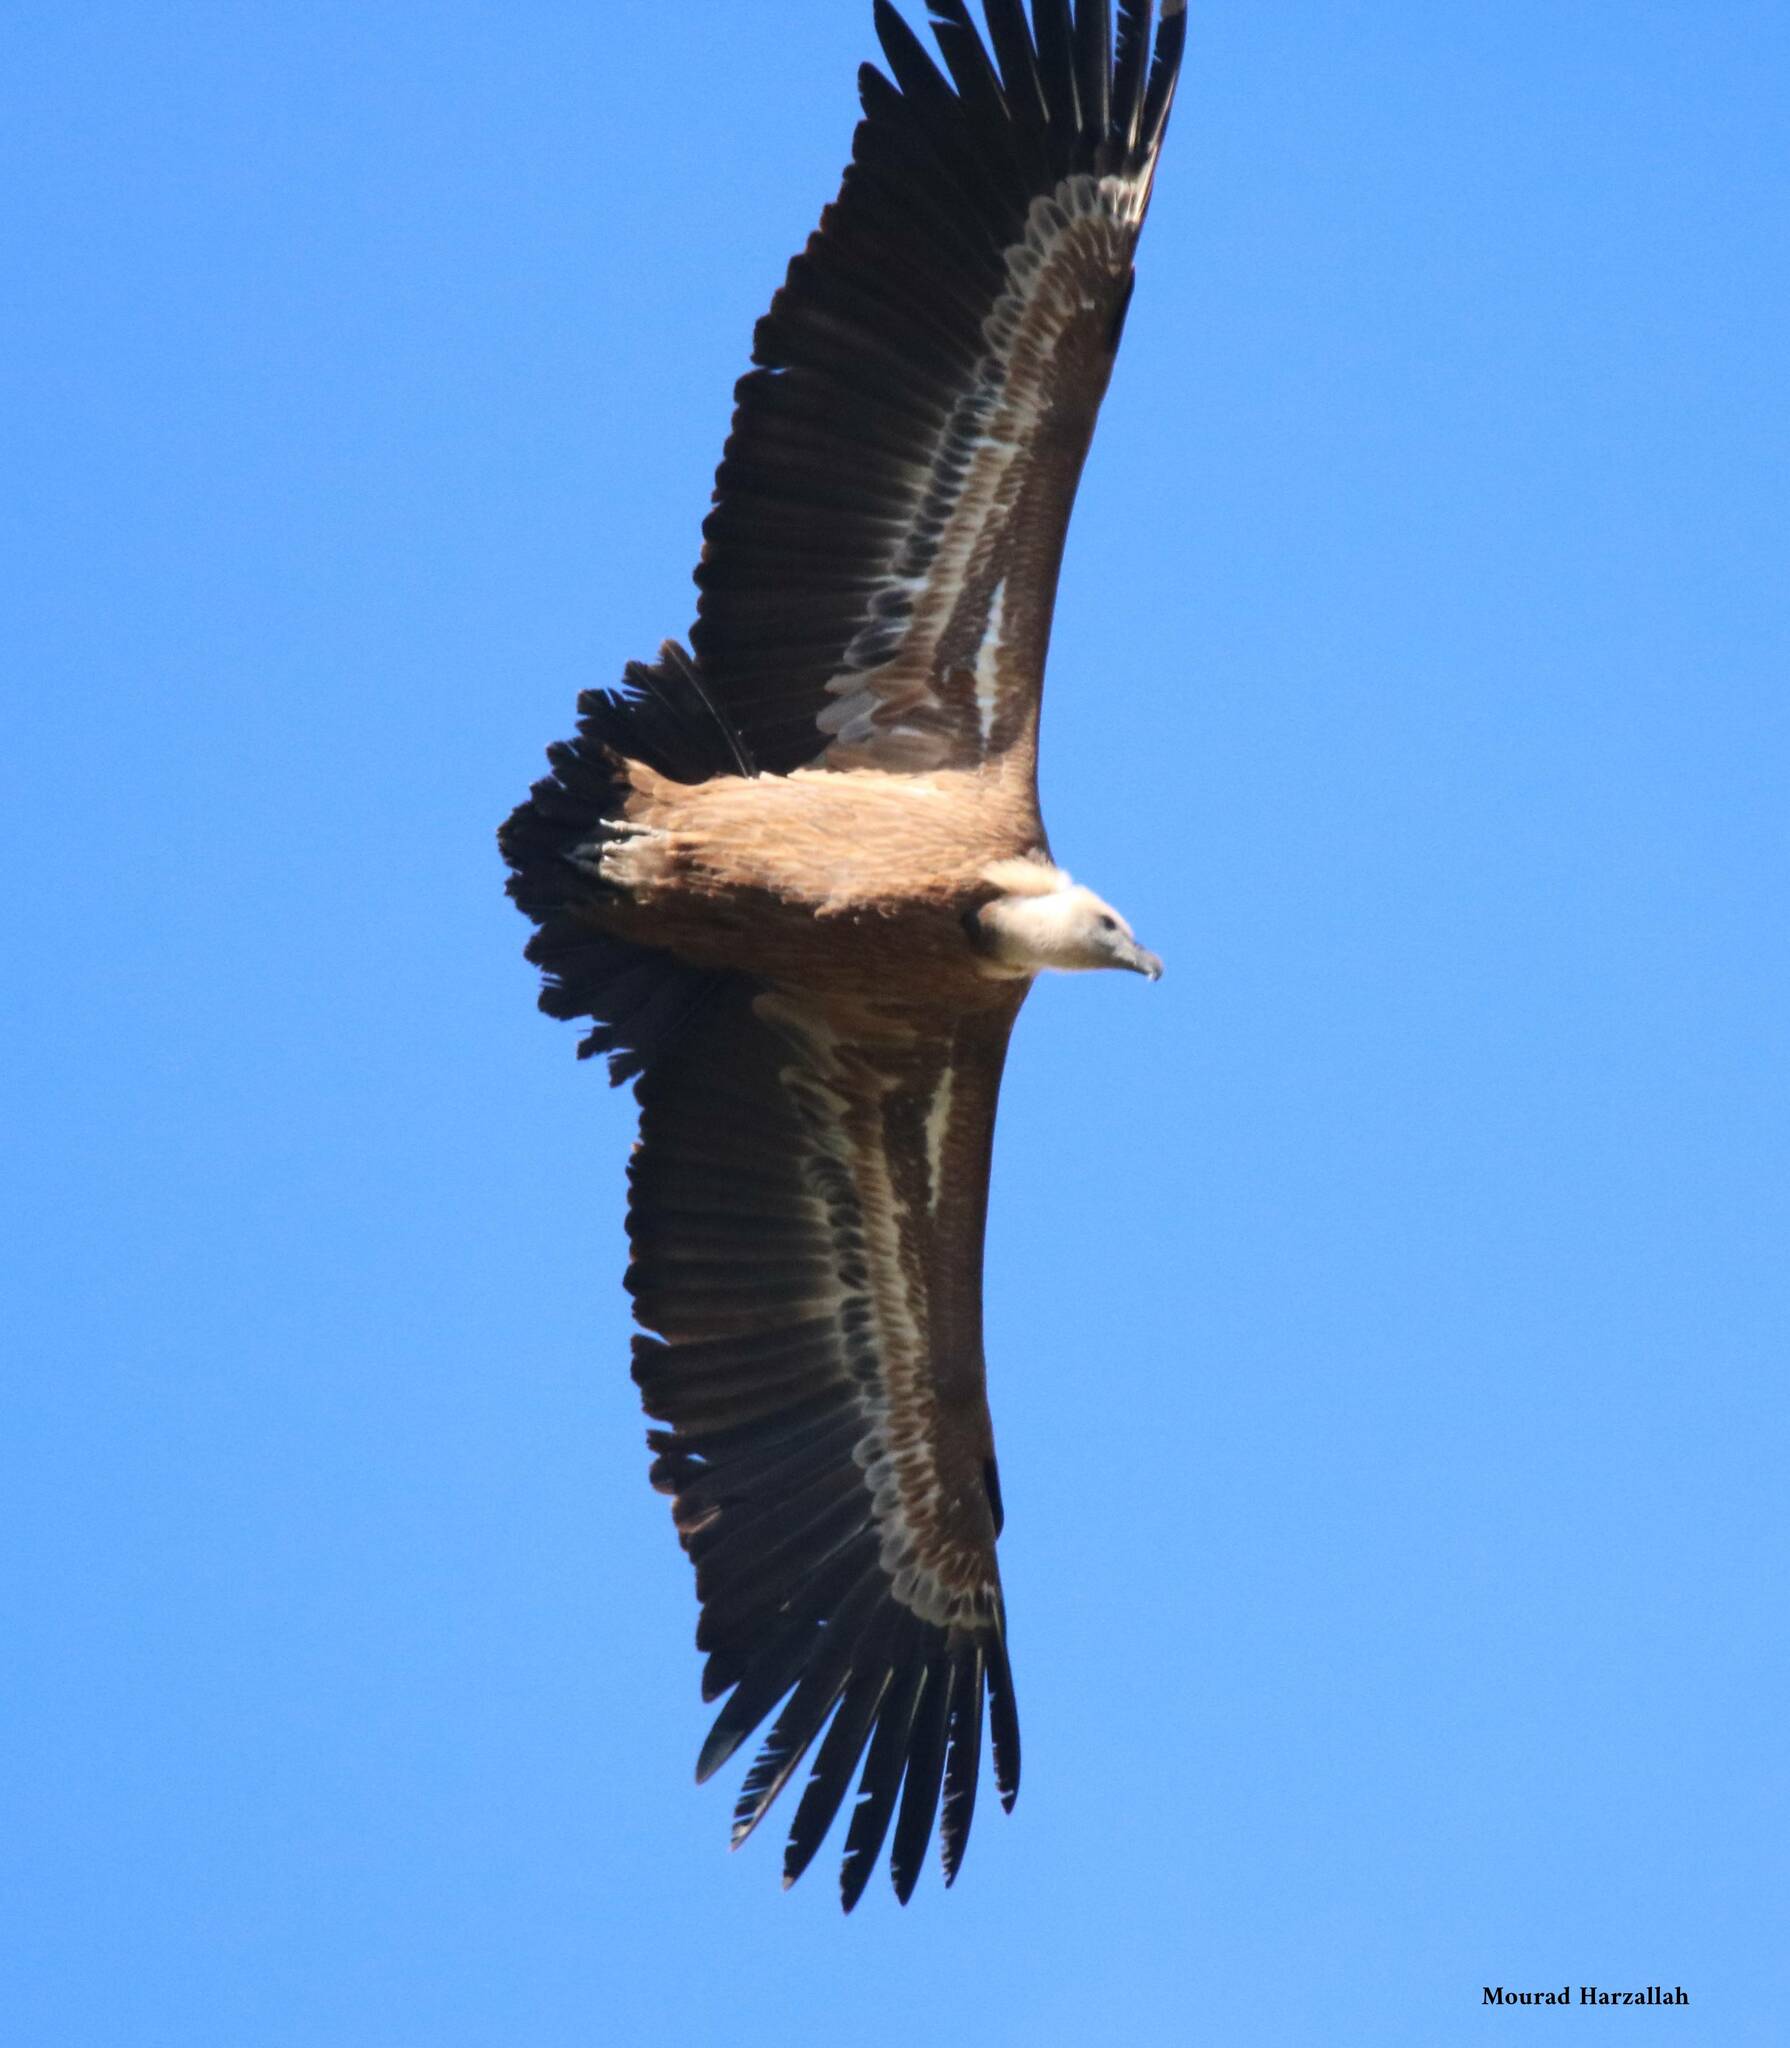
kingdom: Animalia
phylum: Chordata
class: Aves
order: Accipitriformes
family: Accipitridae
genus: Gyps
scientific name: Gyps fulvus
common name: Griffon vulture
